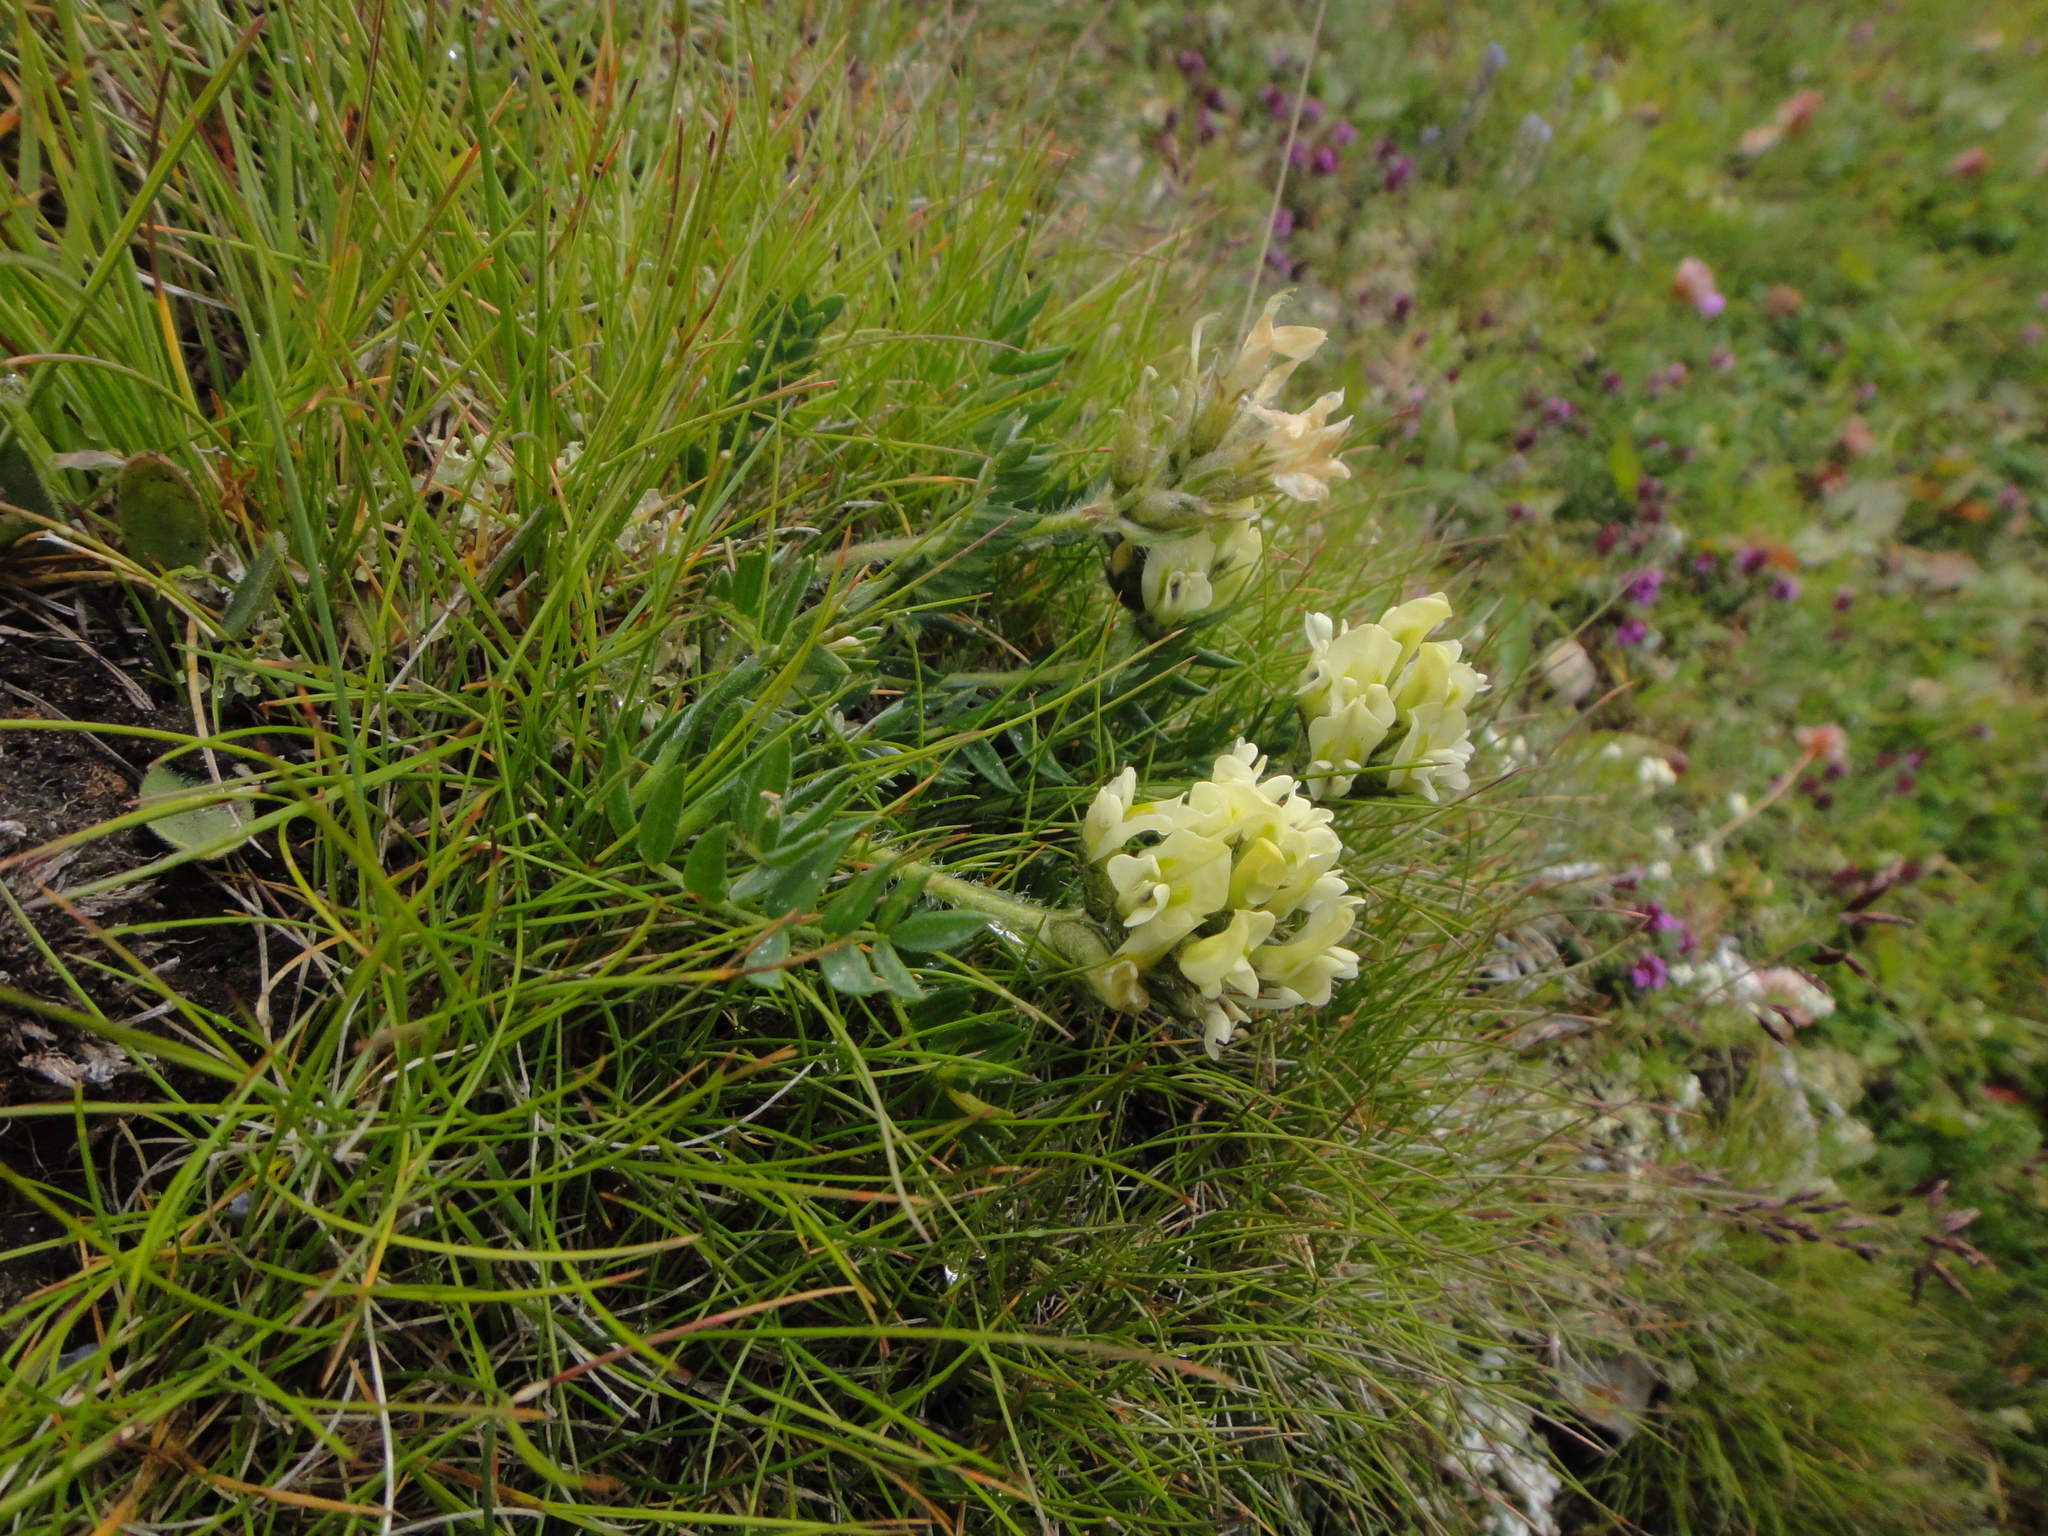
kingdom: Plantae
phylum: Tracheophyta
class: Magnoliopsida
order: Fabales
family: Fabaceae
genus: Oxytropis
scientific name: Oxytropis campestris
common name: Field locoweed
